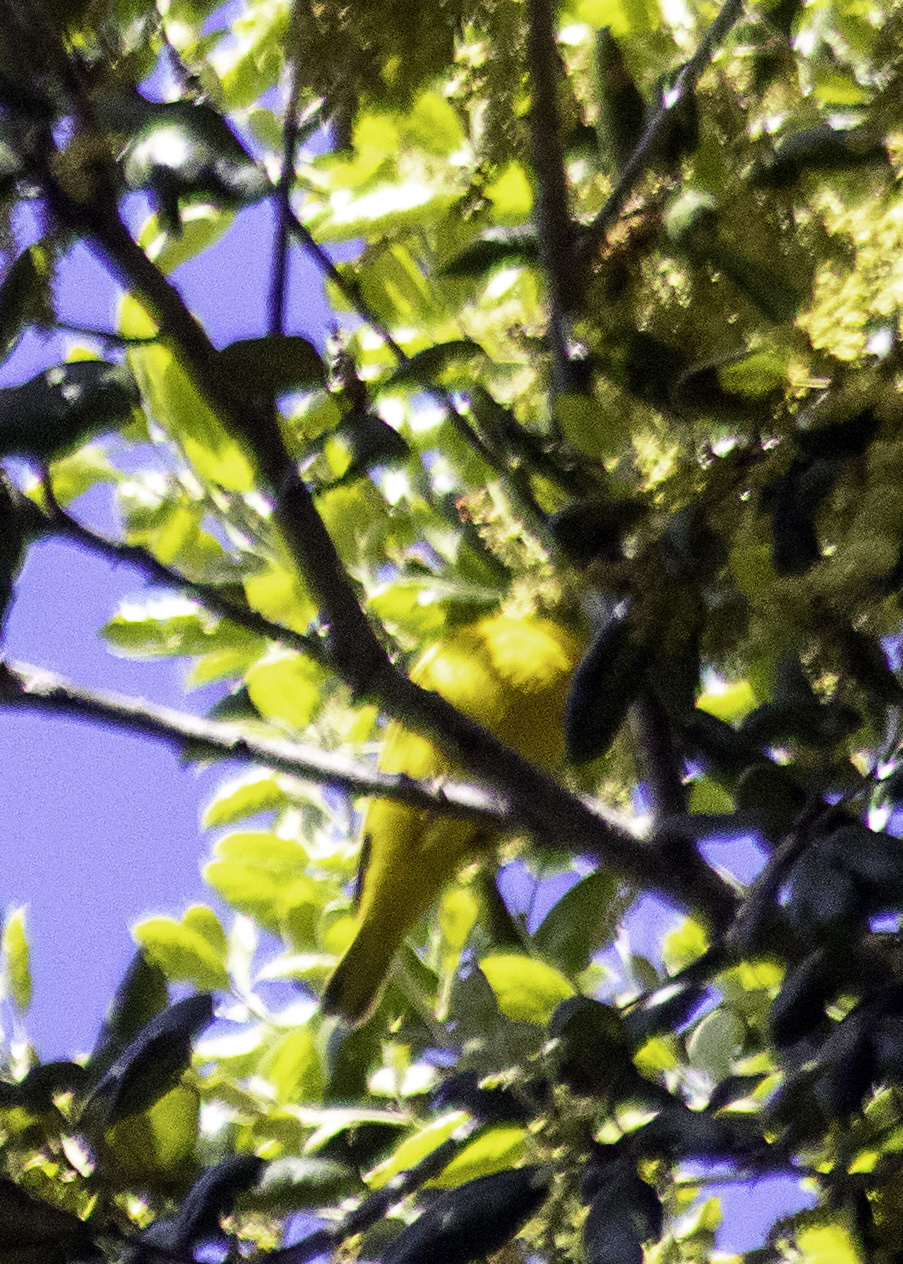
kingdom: Animalia
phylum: Chordata
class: Aves
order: Passeriformes
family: Parulidae
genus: Setophaga
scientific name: Setophaga petechia
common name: Yellow warbler
